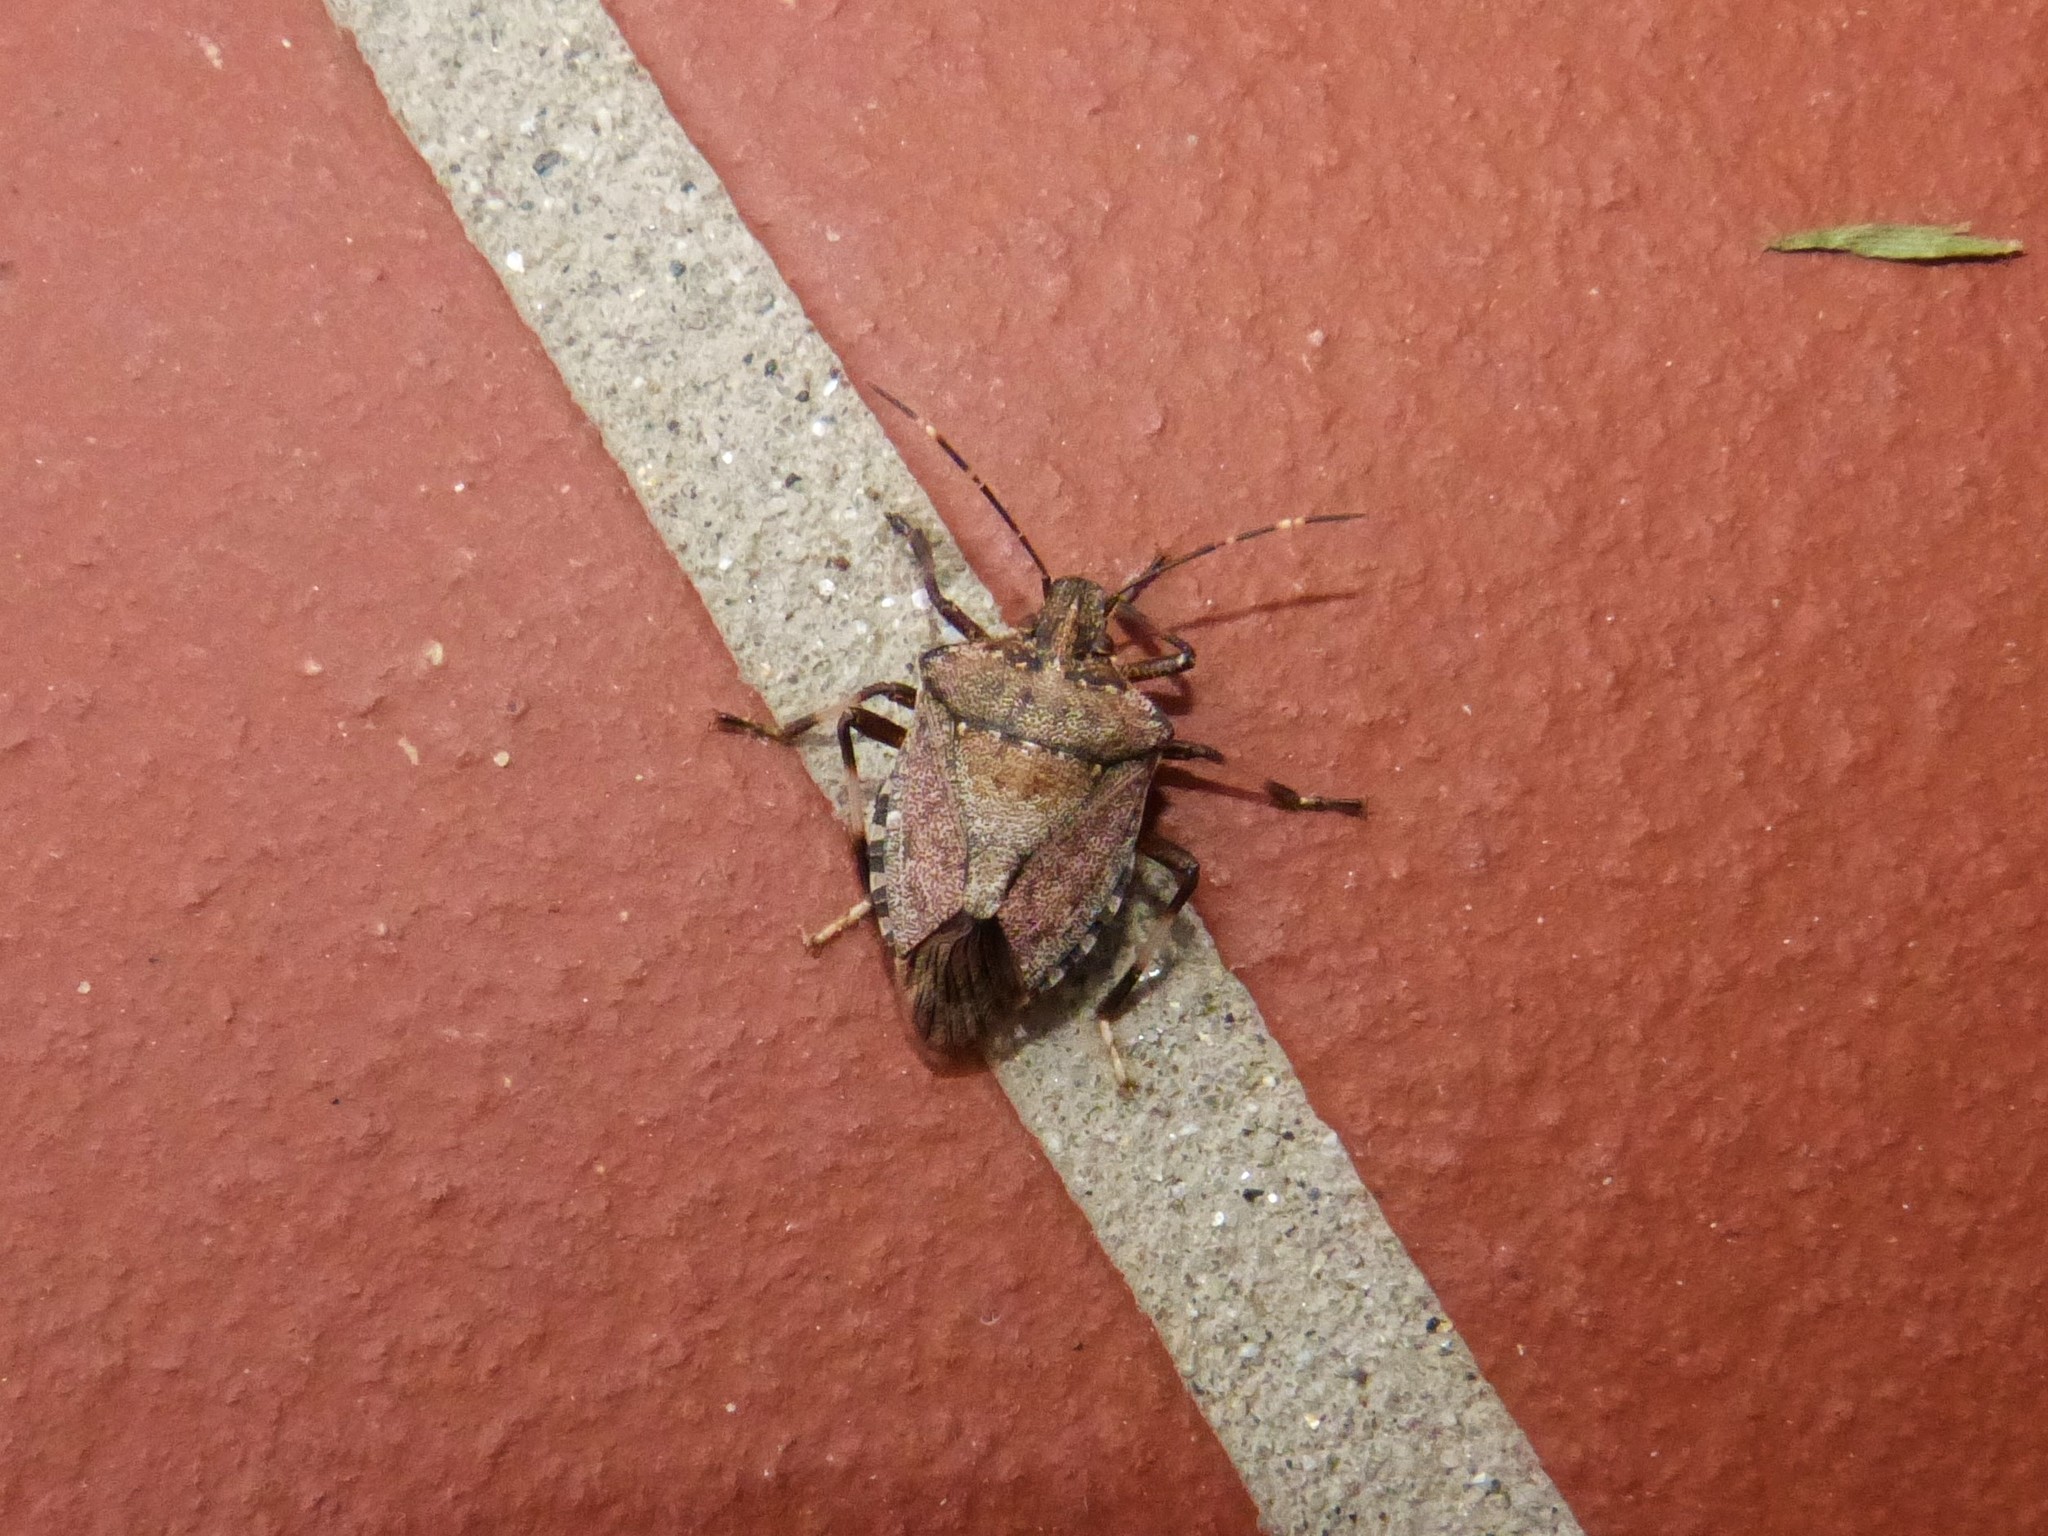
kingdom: Animalia
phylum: Arthropoda
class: Insecta
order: Hemiptera
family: Pentatomidae
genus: Halyomorpha
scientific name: Halyomorpha halys
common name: Brown marmorated stink bug
